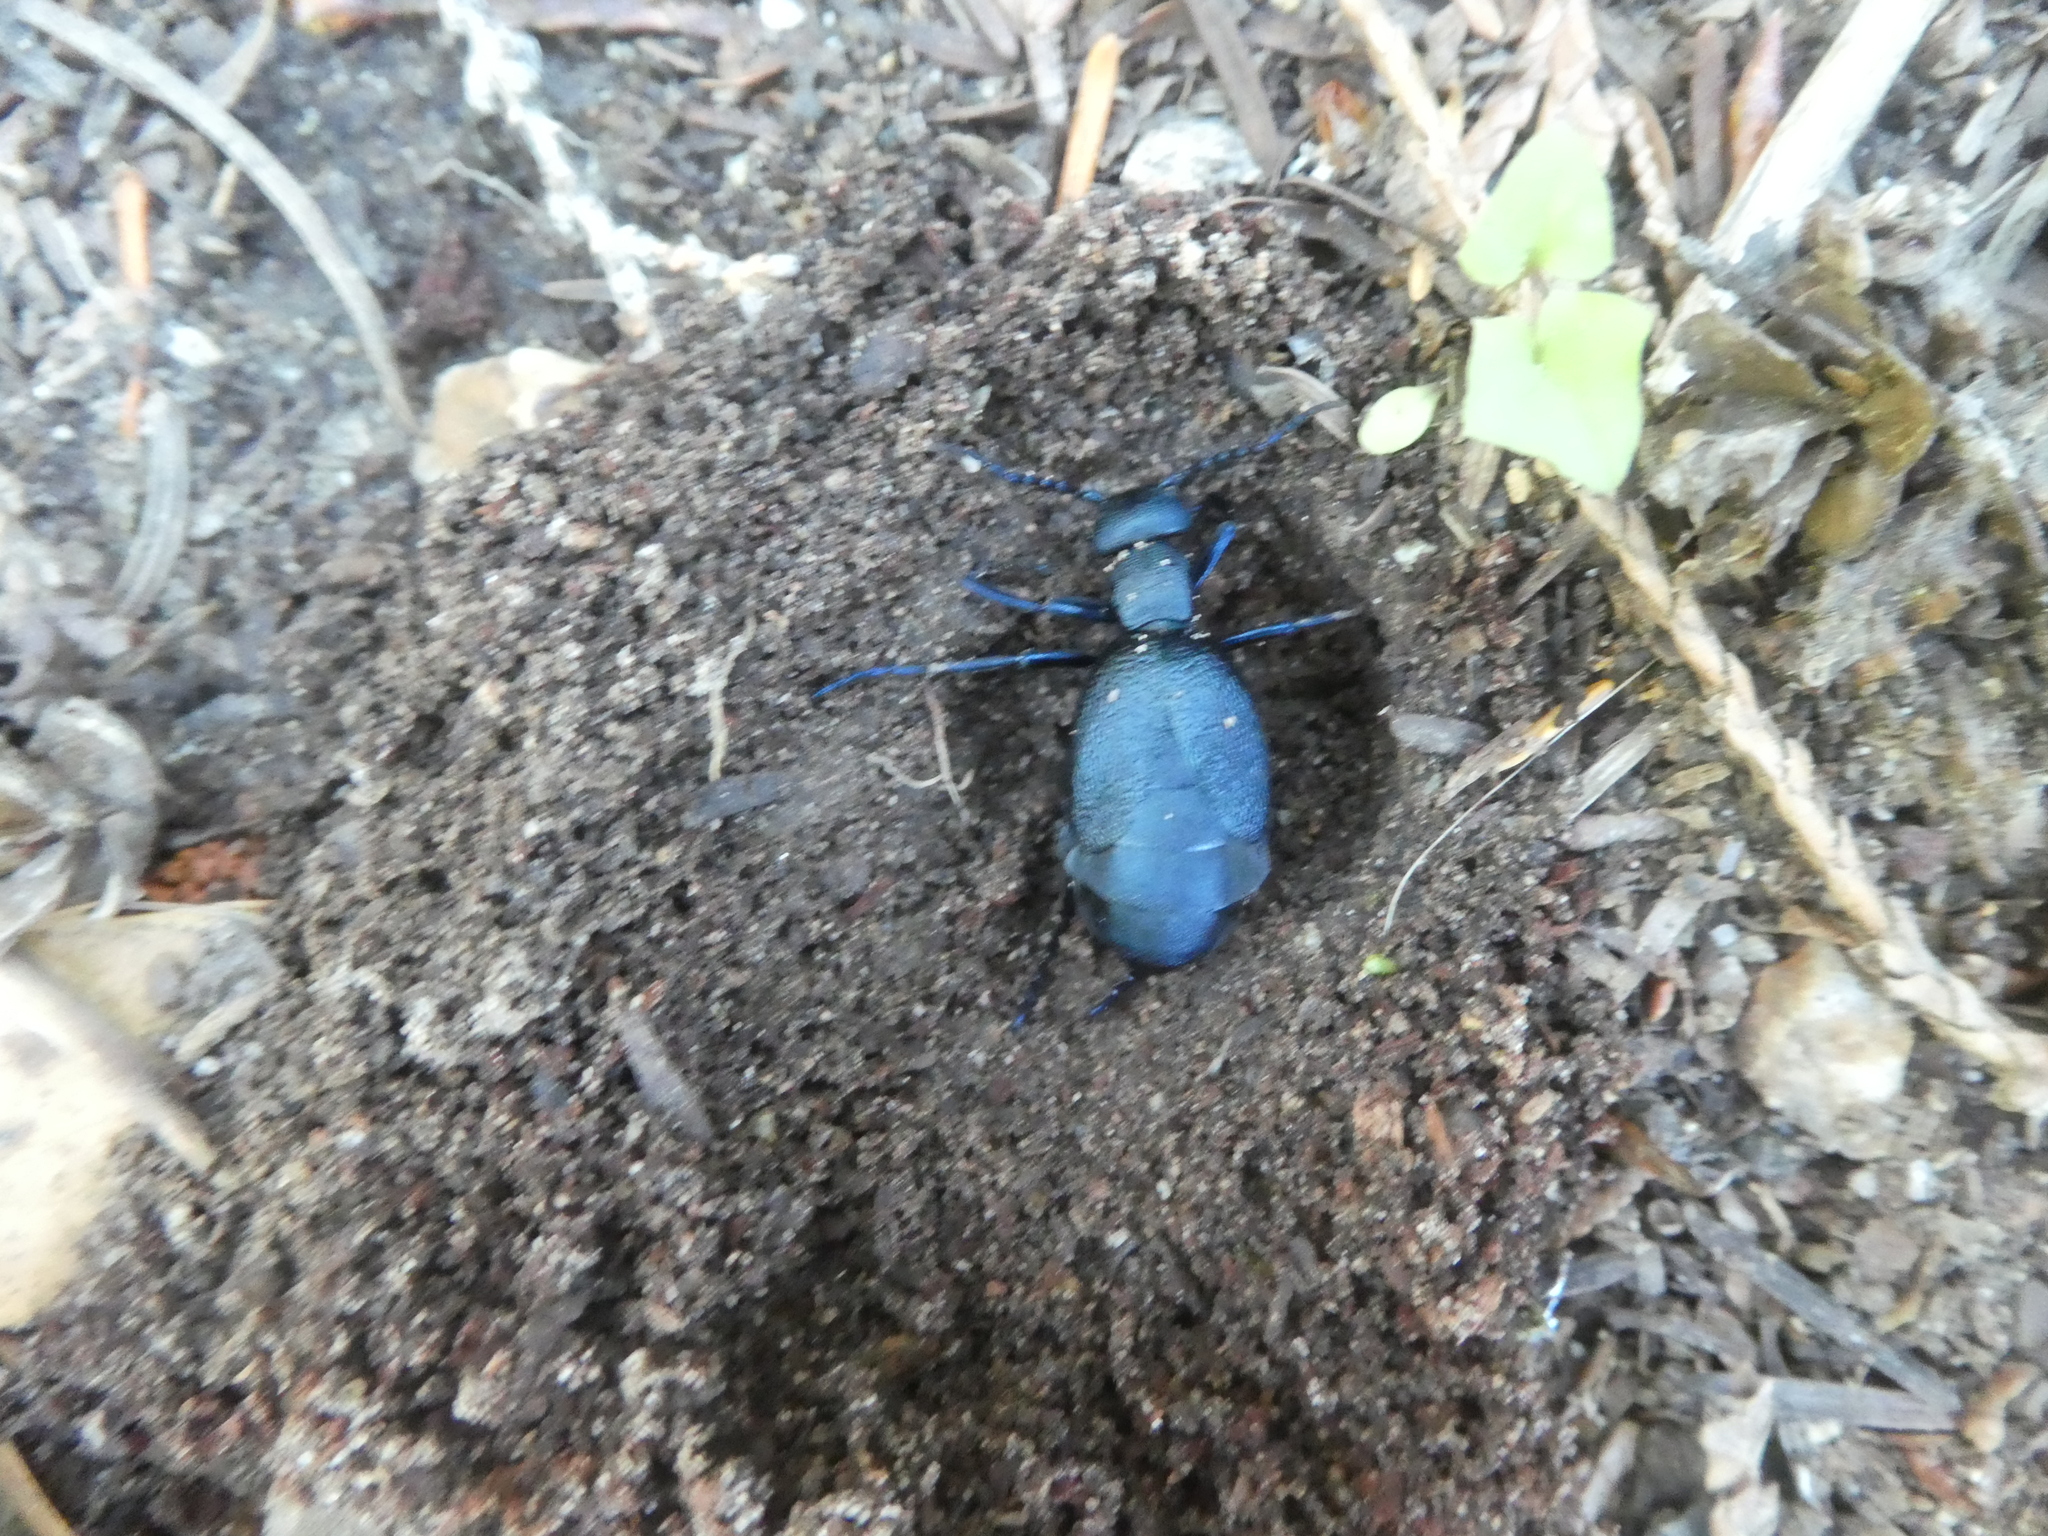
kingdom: Animalia
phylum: Arthropoda
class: Insecta
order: Coleoptera
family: Meloidae
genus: Meloe
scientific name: Meloe angusticollis
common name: Short-winged blister beetle
